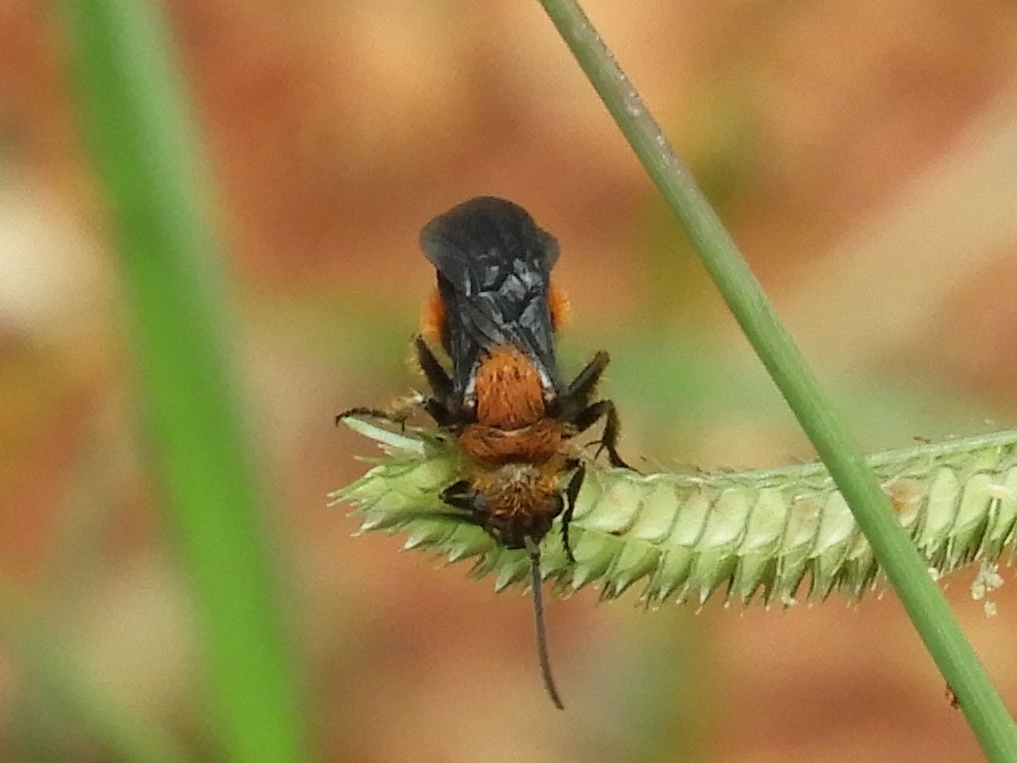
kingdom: Animalia
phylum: Arthropoda
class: Insecta
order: Hymenoptera
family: Mutillidae
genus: Dasymutilla
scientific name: Dasymutilla
